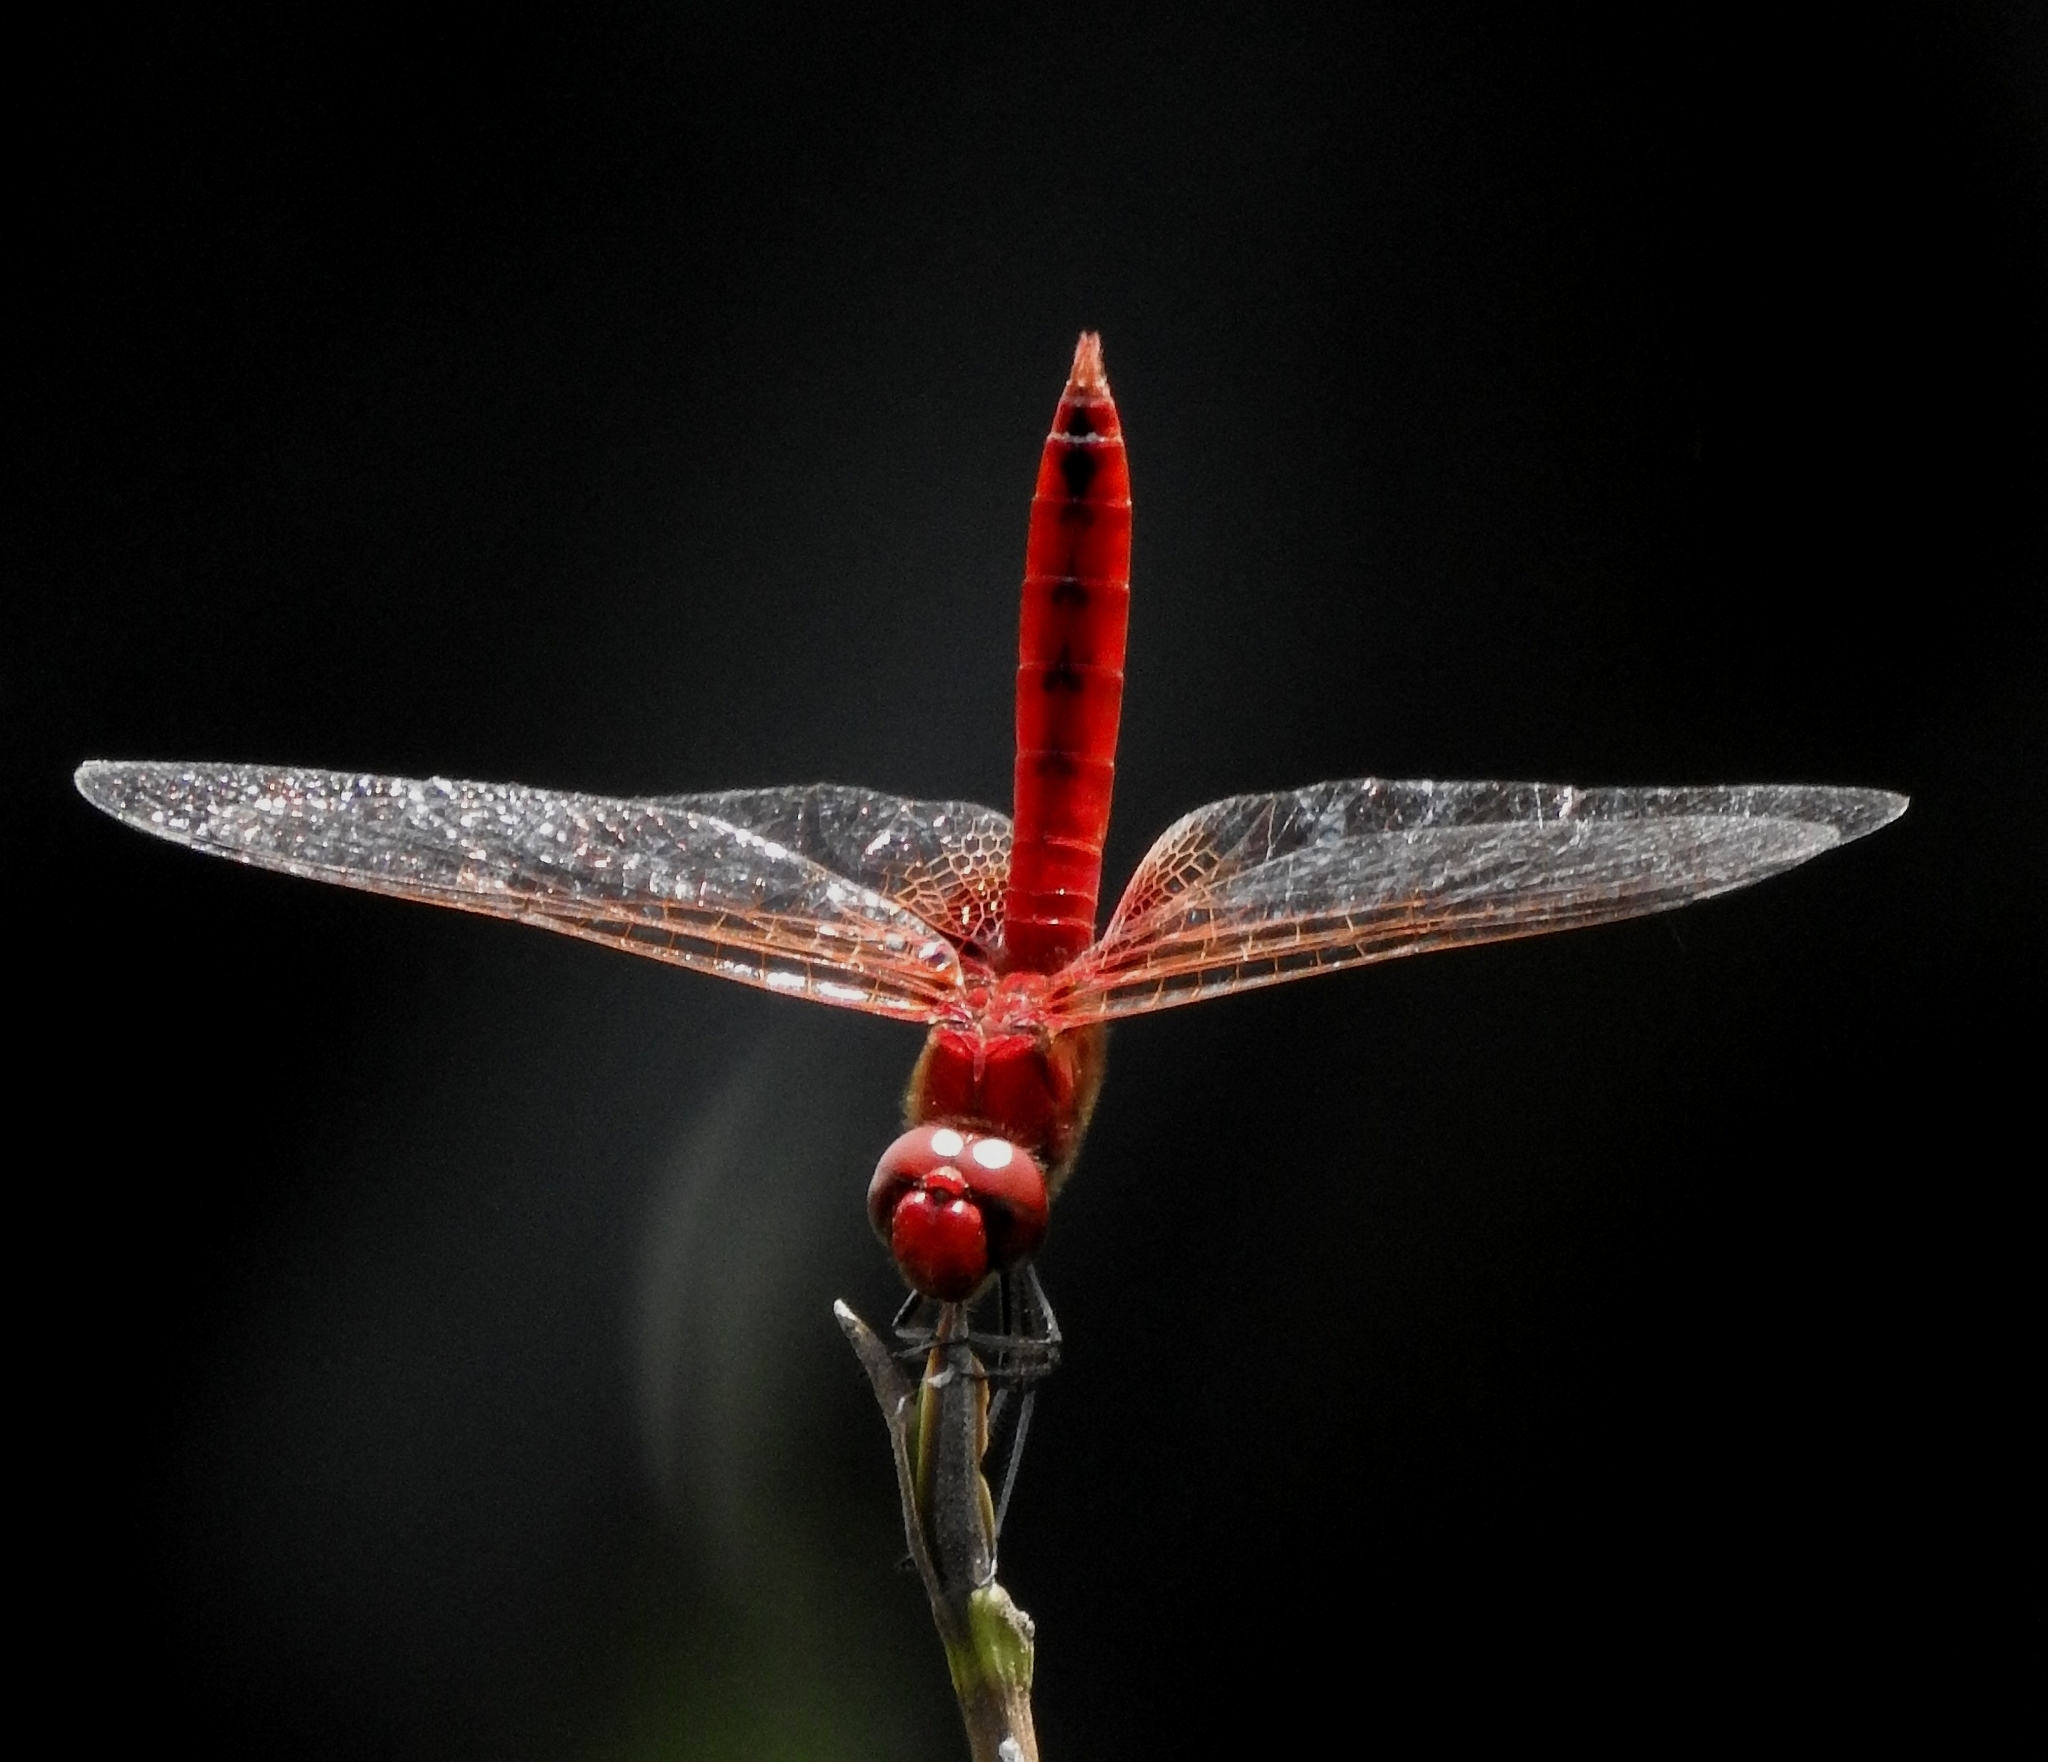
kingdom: Animalia
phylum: Arthropoda
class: Insecta
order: Odonata
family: Libellulidae
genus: Urothemis
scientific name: Urothemis signata
